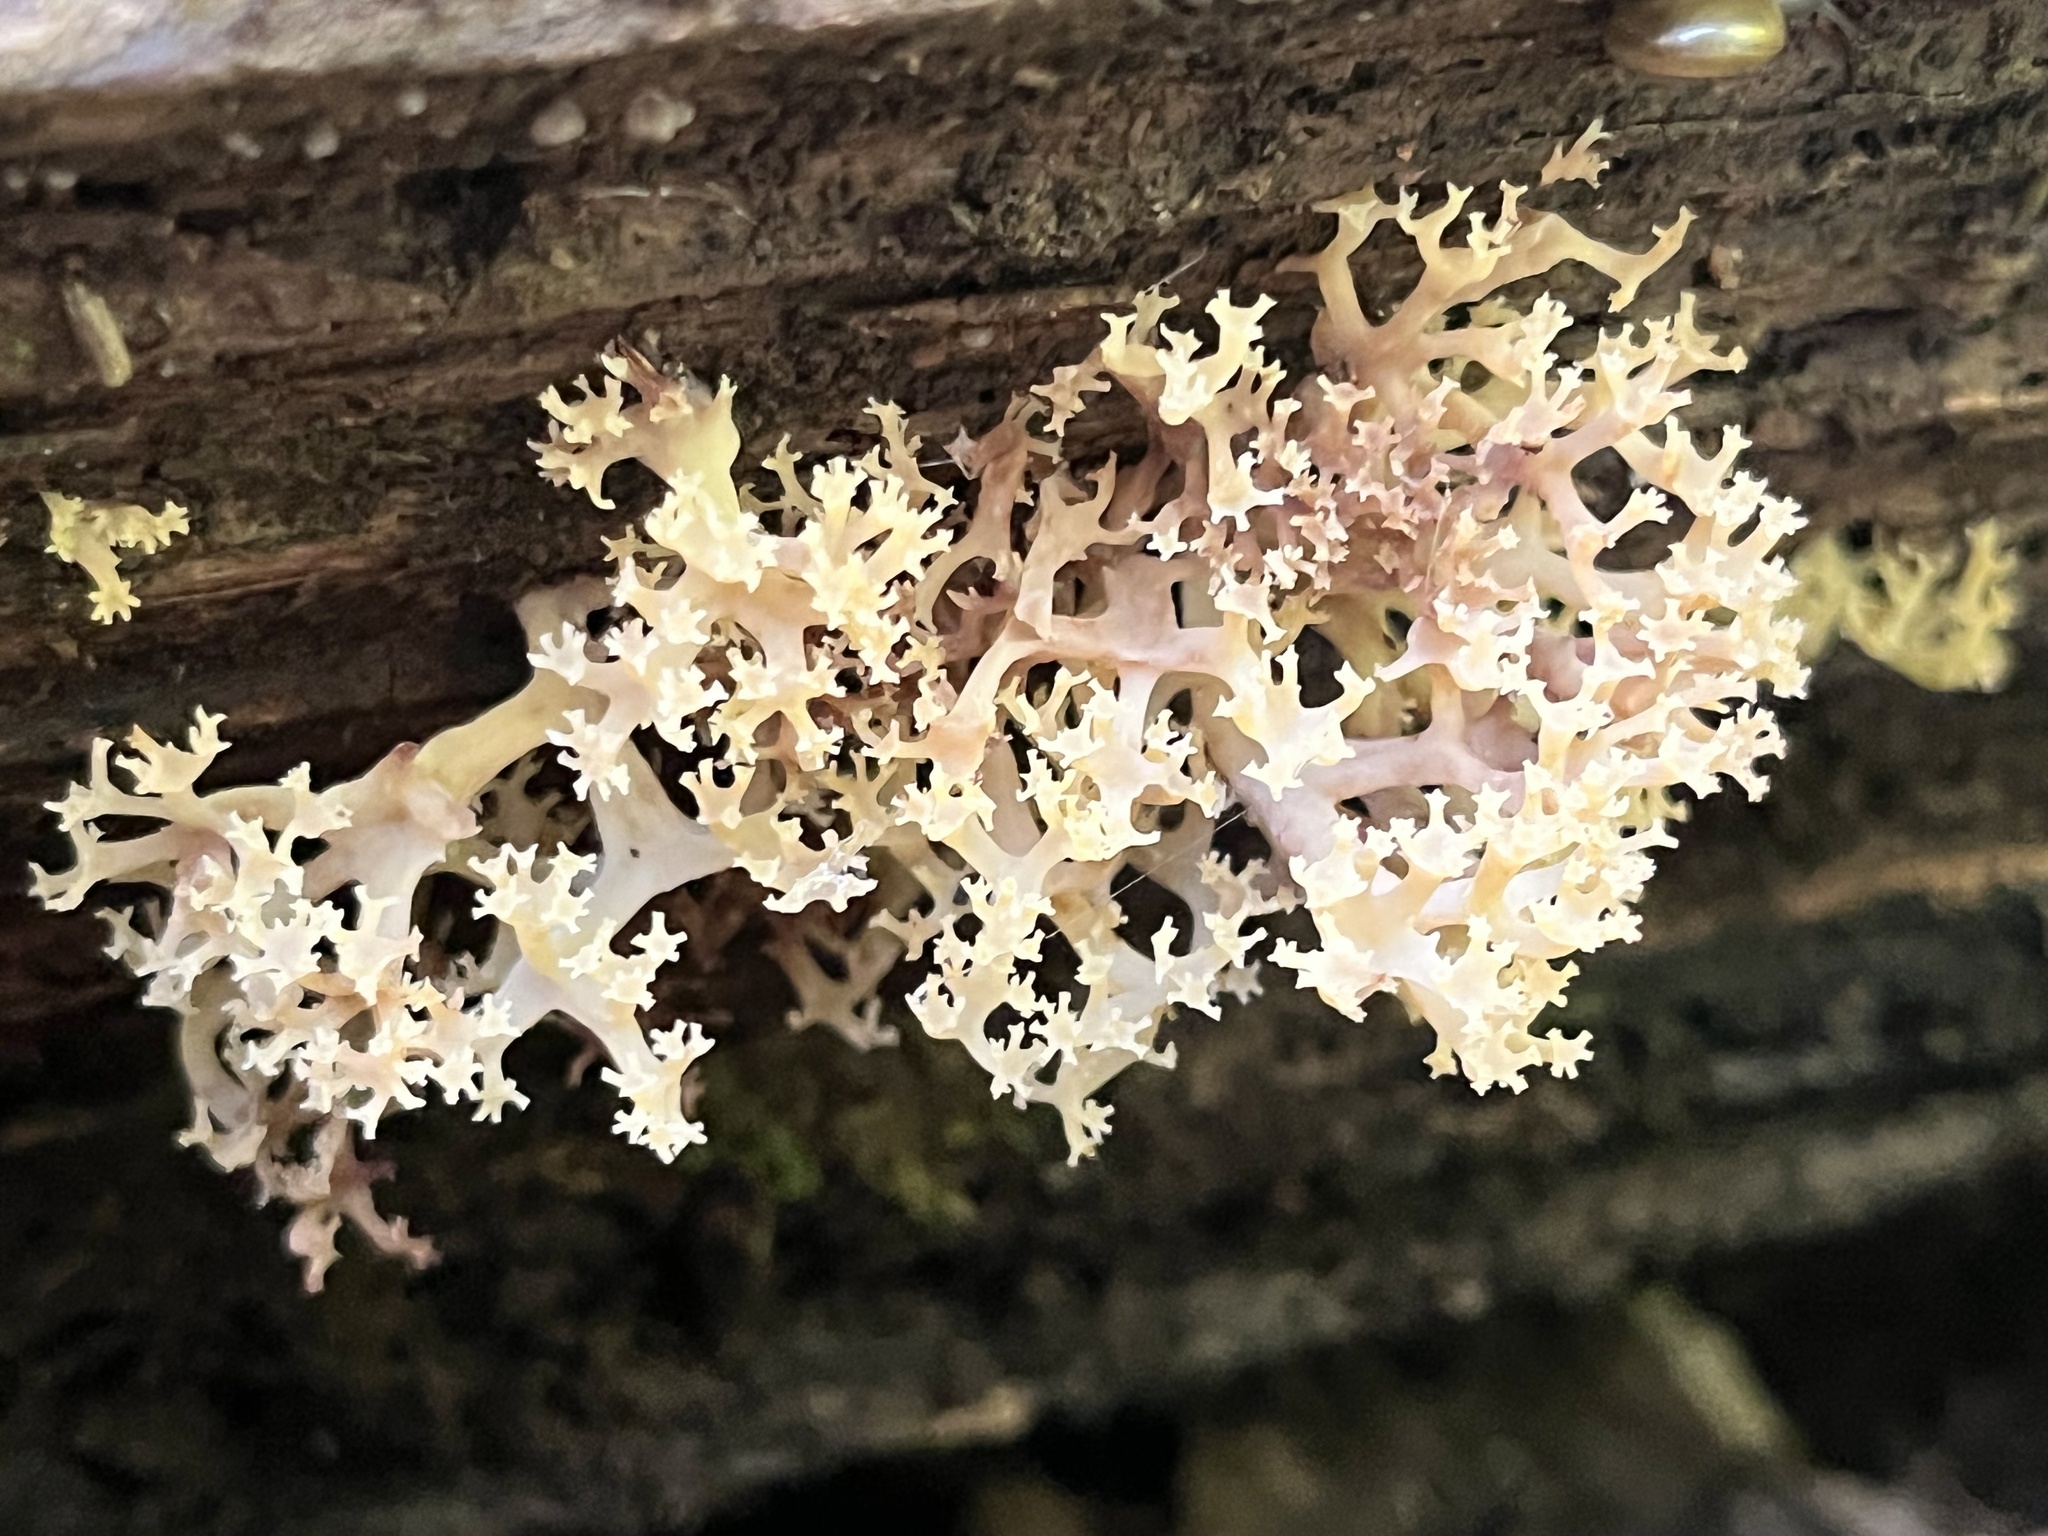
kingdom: Fungi
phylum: Basidiomycota
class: Agaricomycetes
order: Russulales
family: Auriscalpiaceae
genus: Artomyces
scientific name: Artomyces pyxidatus
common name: Crown-tipped coral fungus
